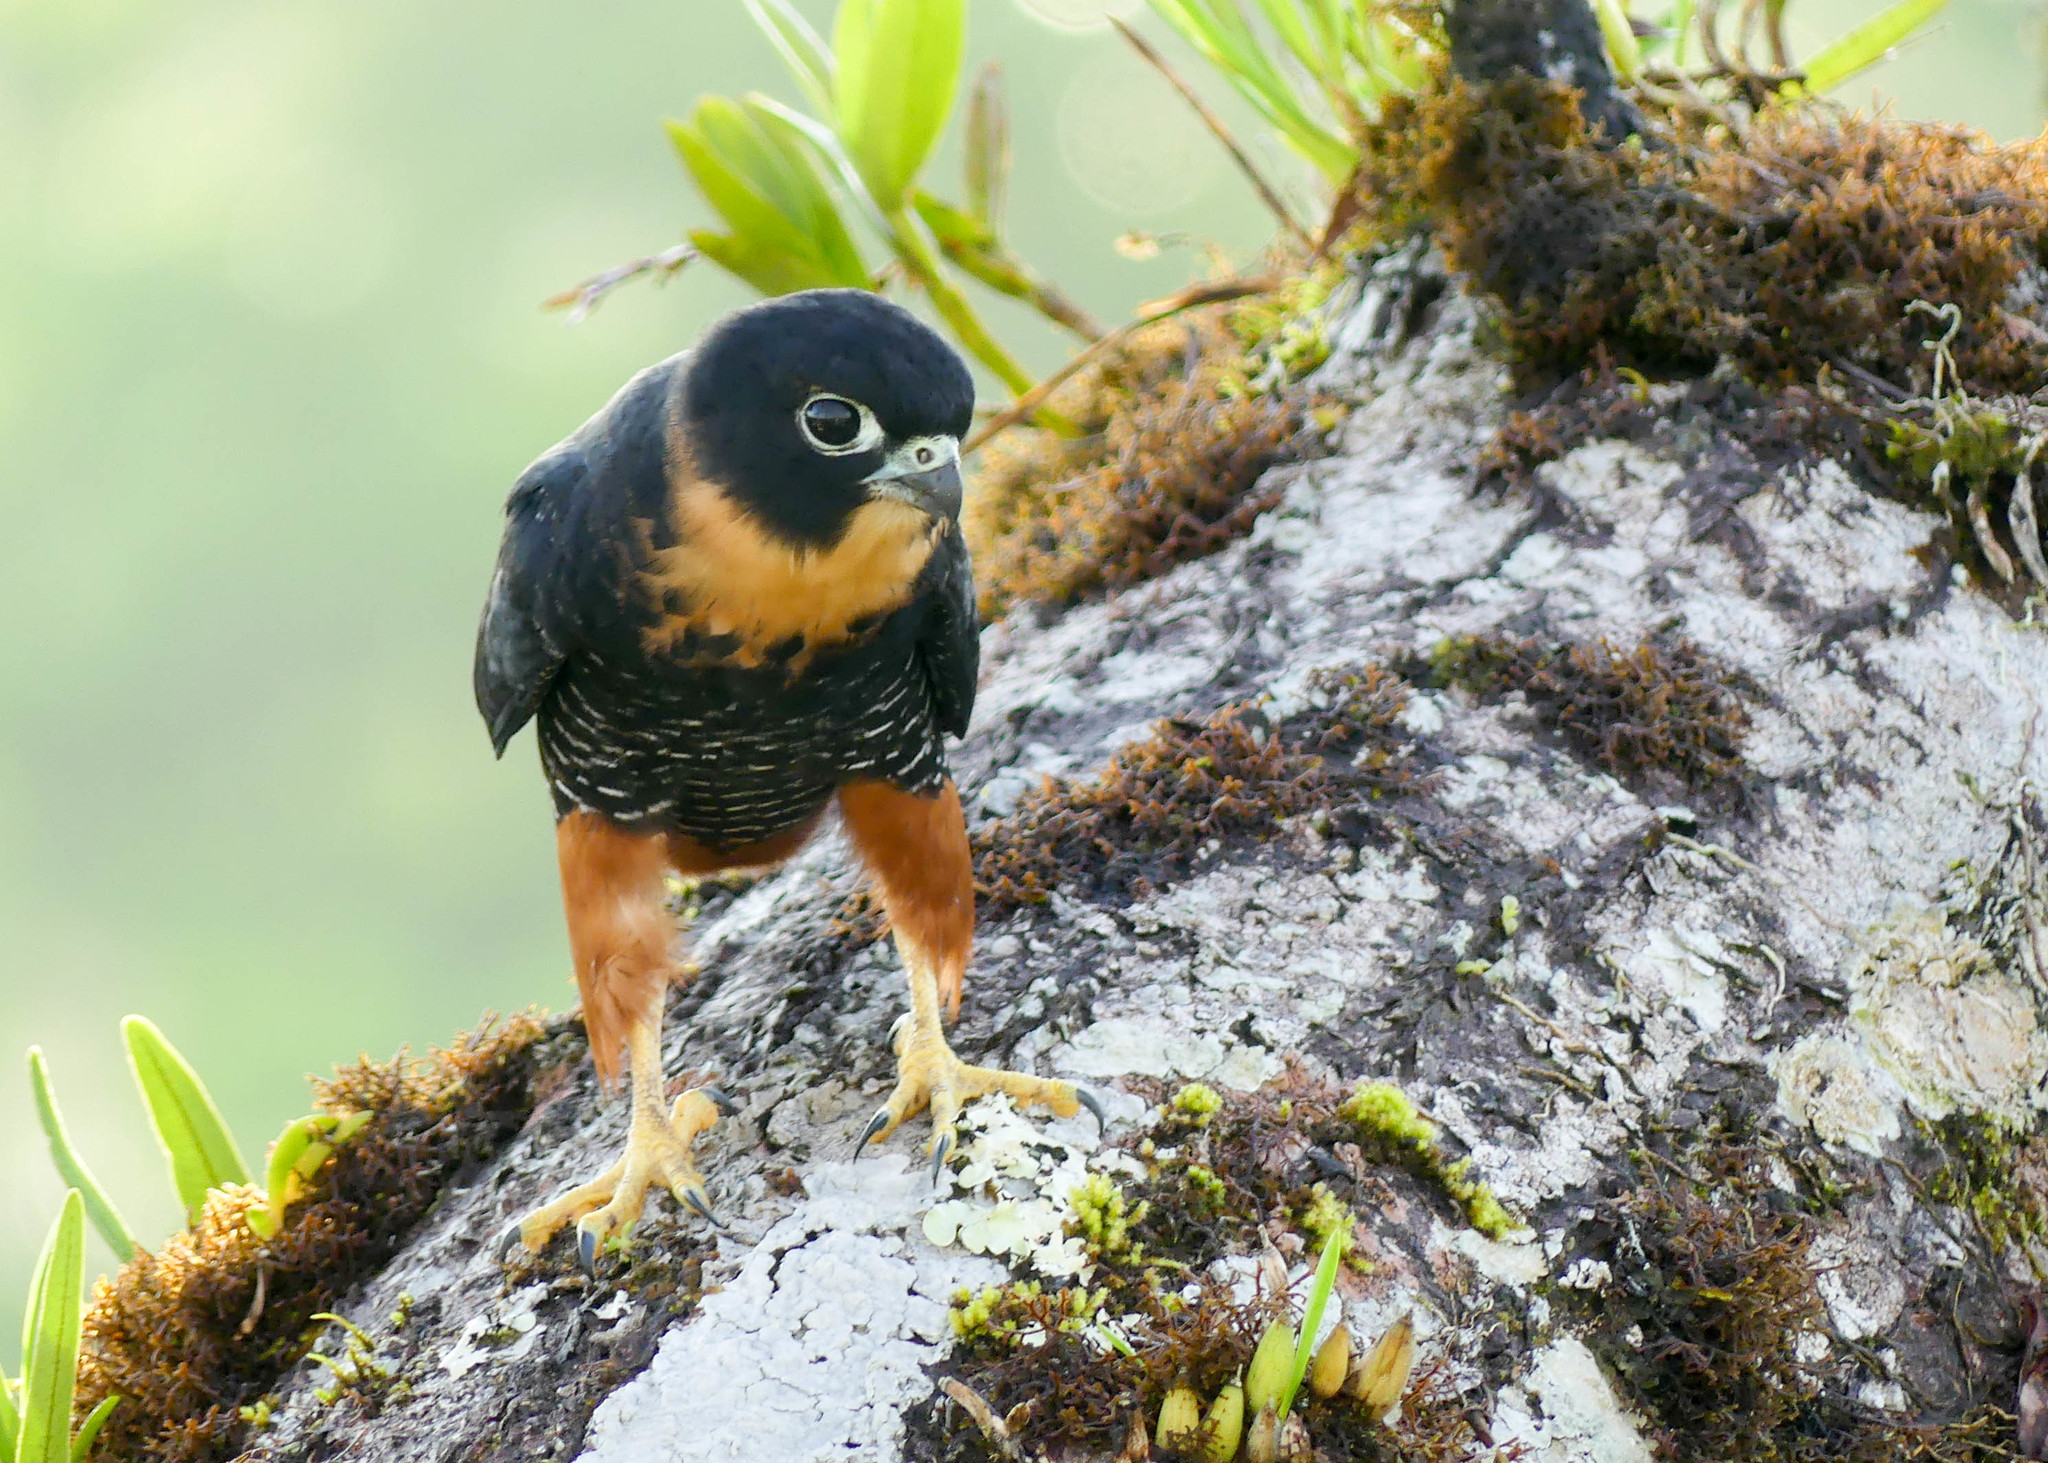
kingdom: Animalia
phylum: Chordata
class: Aves
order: Falconiformes
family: Falconidae
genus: Falco
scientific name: Falco rufigularis
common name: Bat falcon
